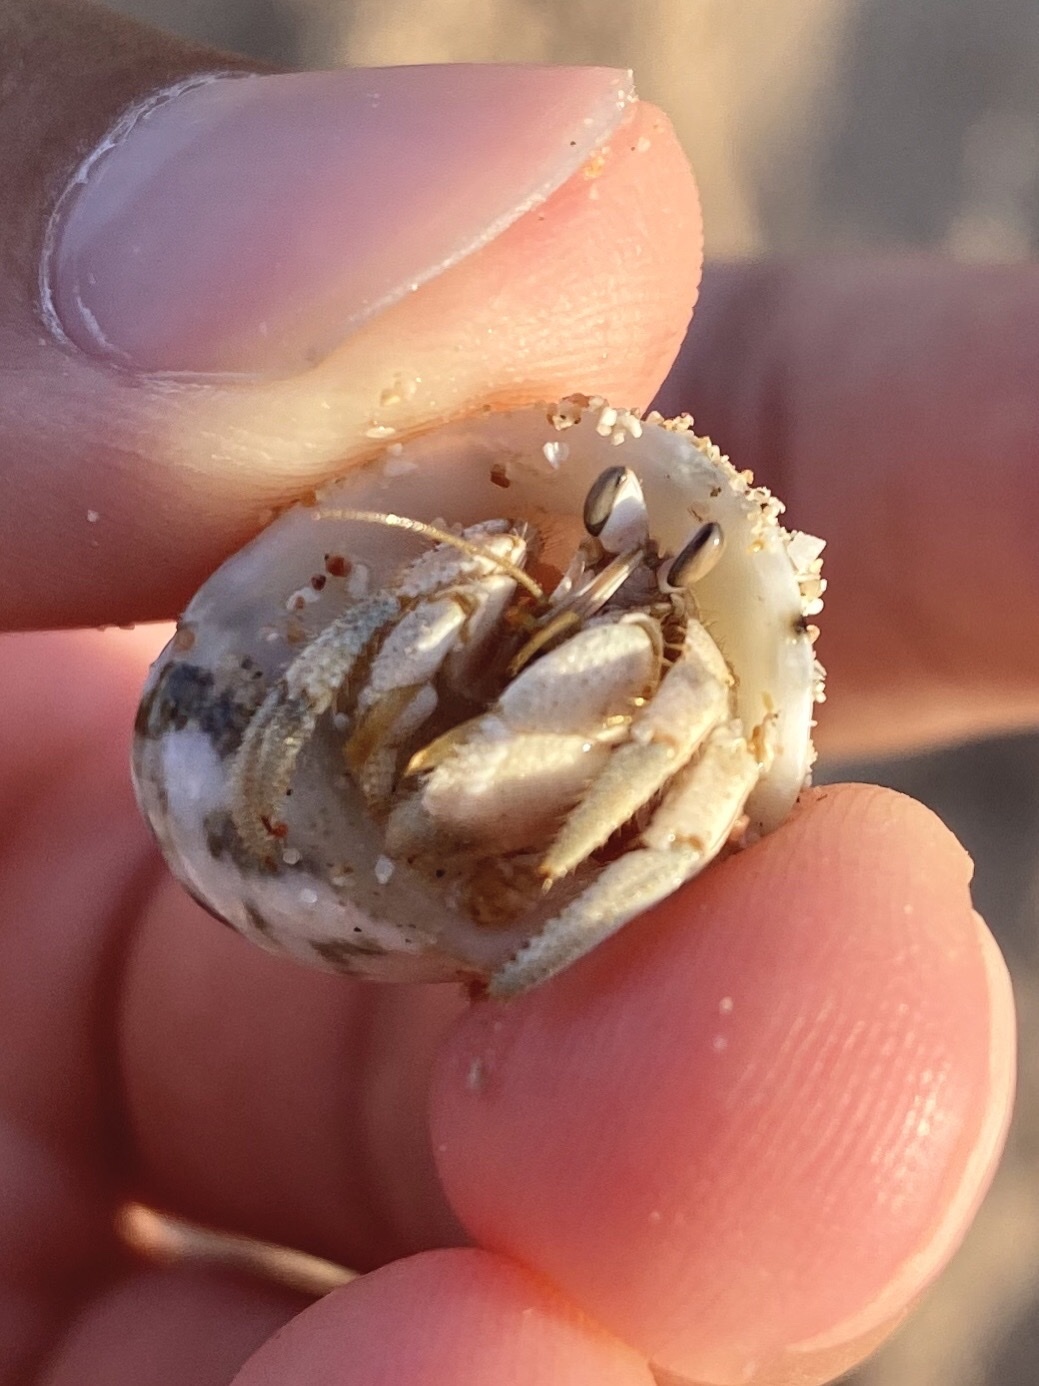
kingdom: Animalia
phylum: Arthropoda
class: Malacostraca
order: Decapoda
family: Coenobitidae
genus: Coenobita
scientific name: Coenobita scaevola
